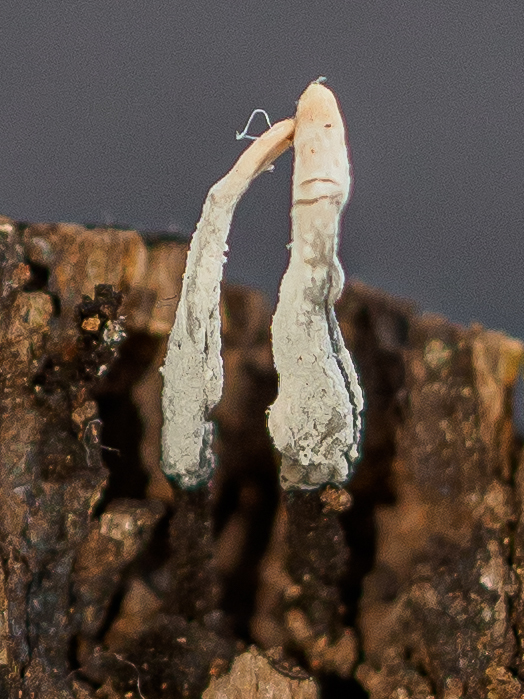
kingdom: Fungi
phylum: Ascomycota
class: Sordariomycetes
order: Xylariales
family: Xylariaceae
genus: Xylaria
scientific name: Xylaria hypoxylon
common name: Candle-snuff fungus
